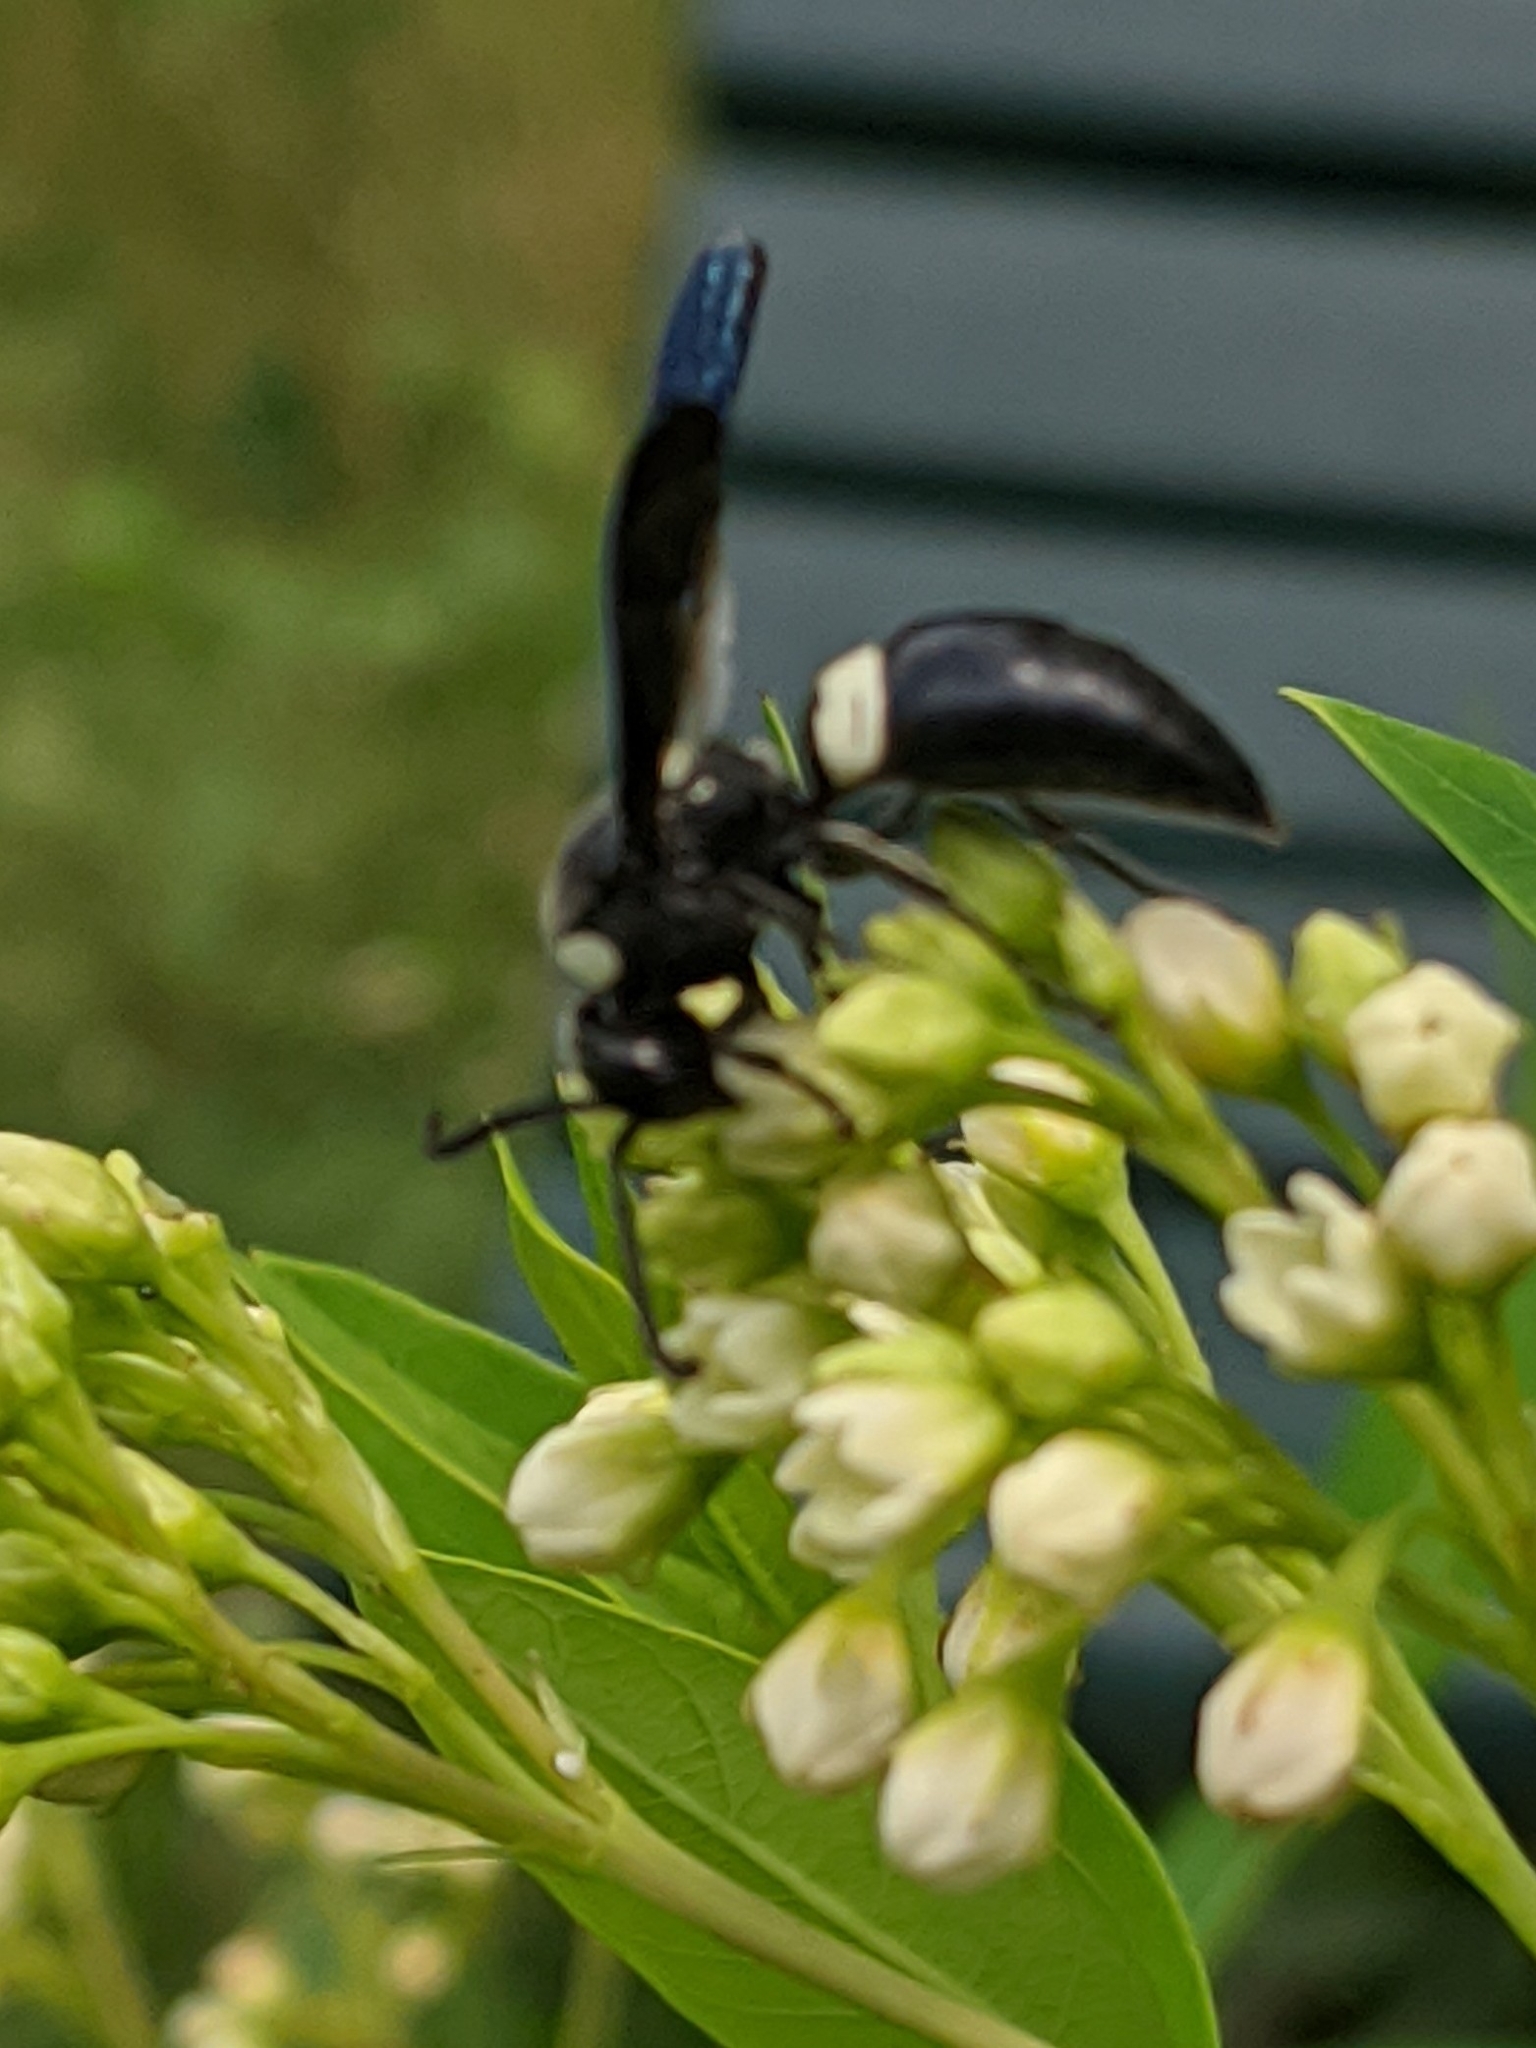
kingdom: Animalia
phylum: Arthropoda
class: Insecta
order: Hymenoptera
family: Eumenidae
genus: Monobia
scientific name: Monobia quadridens
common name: Four-toothed mason wasp
